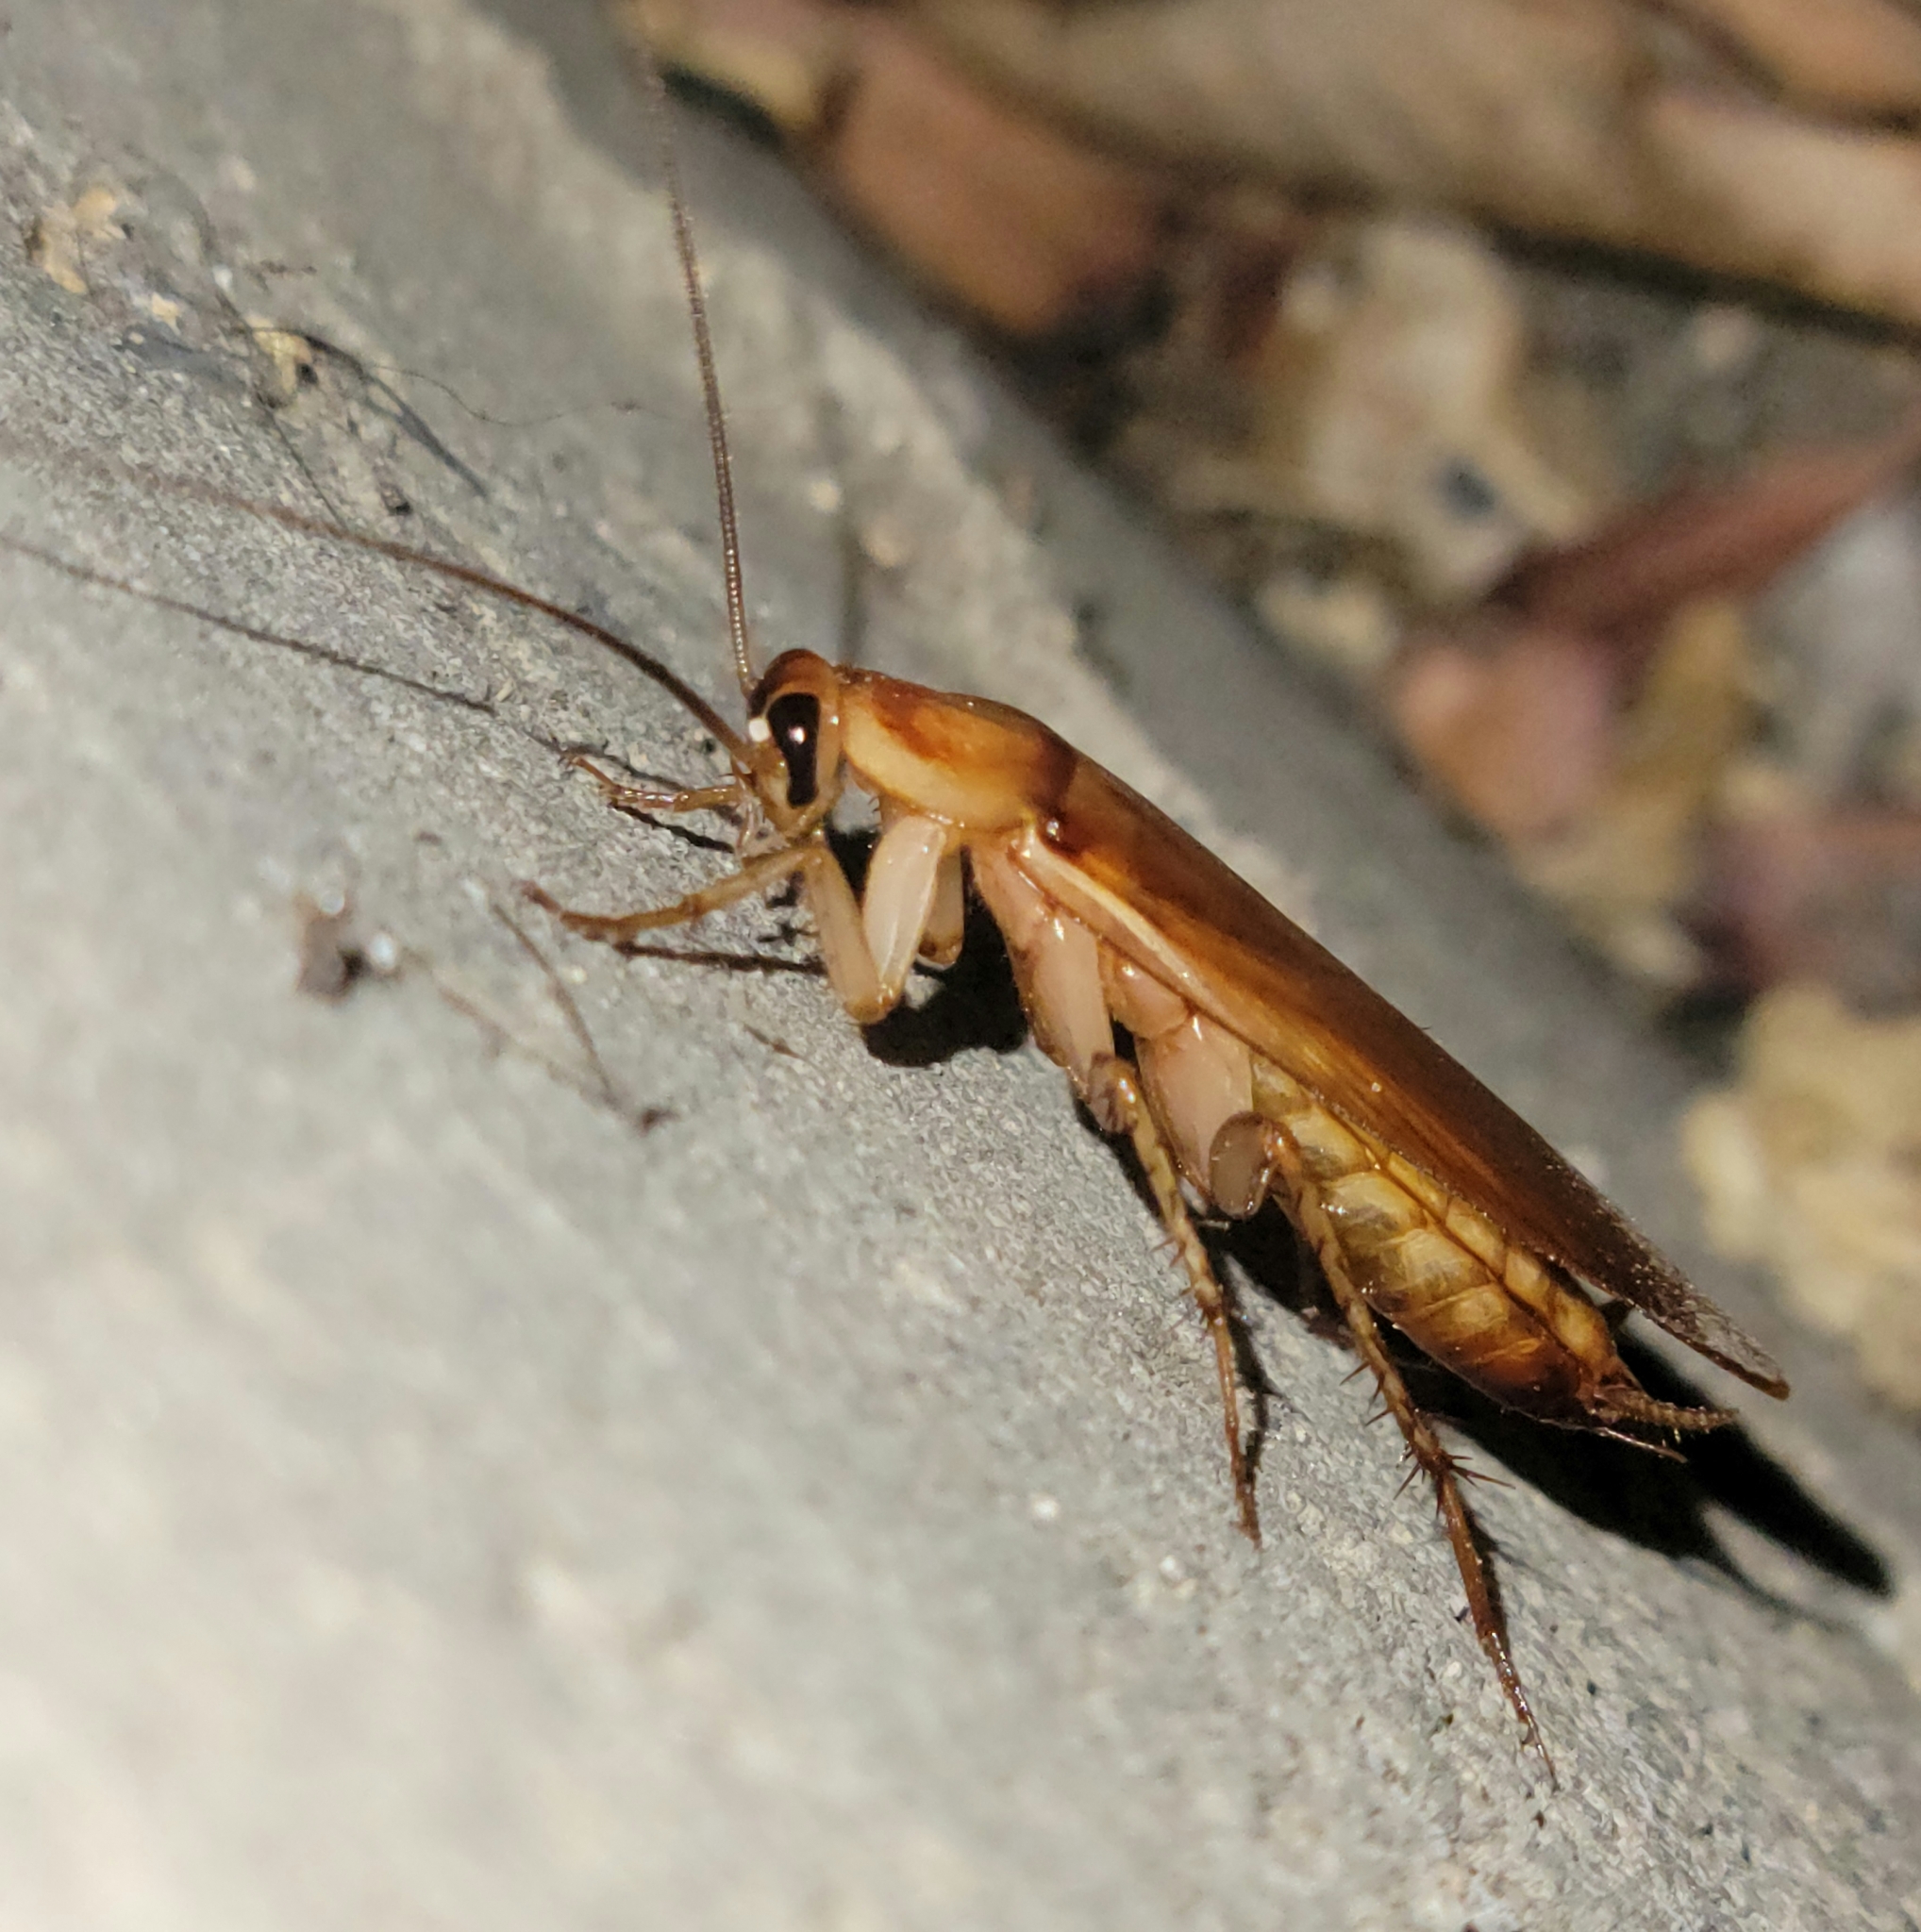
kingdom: Animalia
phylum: Arthropoda
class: Insecta
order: Blattodea
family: Blattidae
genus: Periplaneta
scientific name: Periplaneta lateralis
